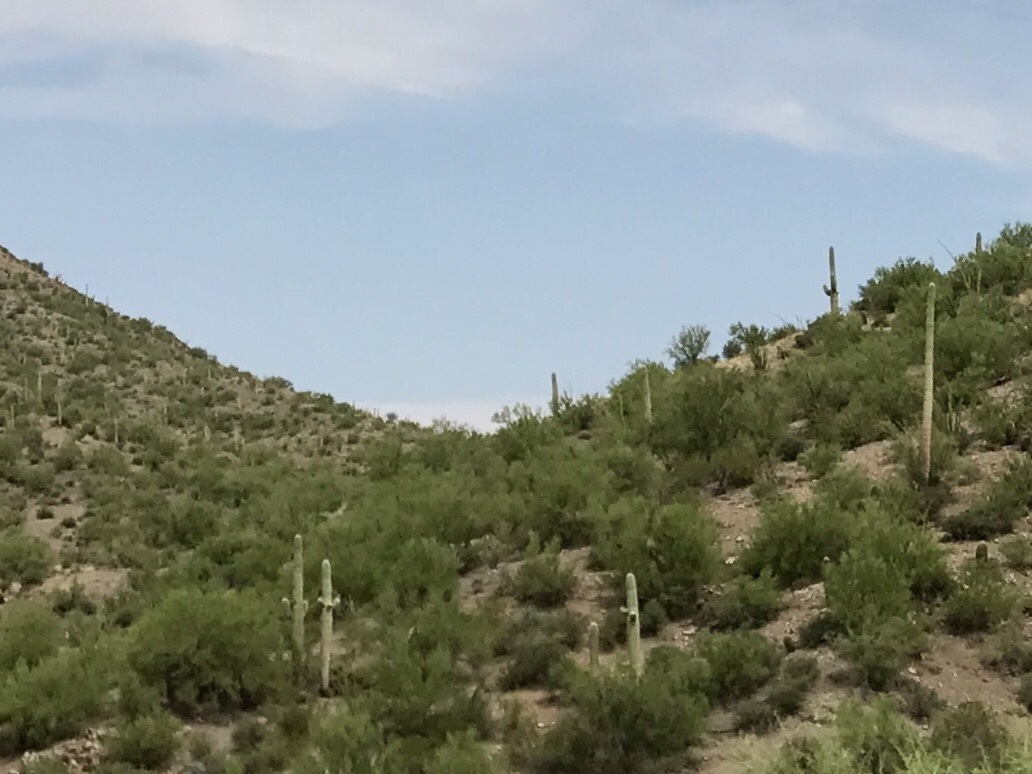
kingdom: Plantae
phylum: Tracheophyta
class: Magnoliopsida
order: Caryophyllales
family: Cactaceae
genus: Carnegiea
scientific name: Carnegiea gigantea
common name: Saguaro
